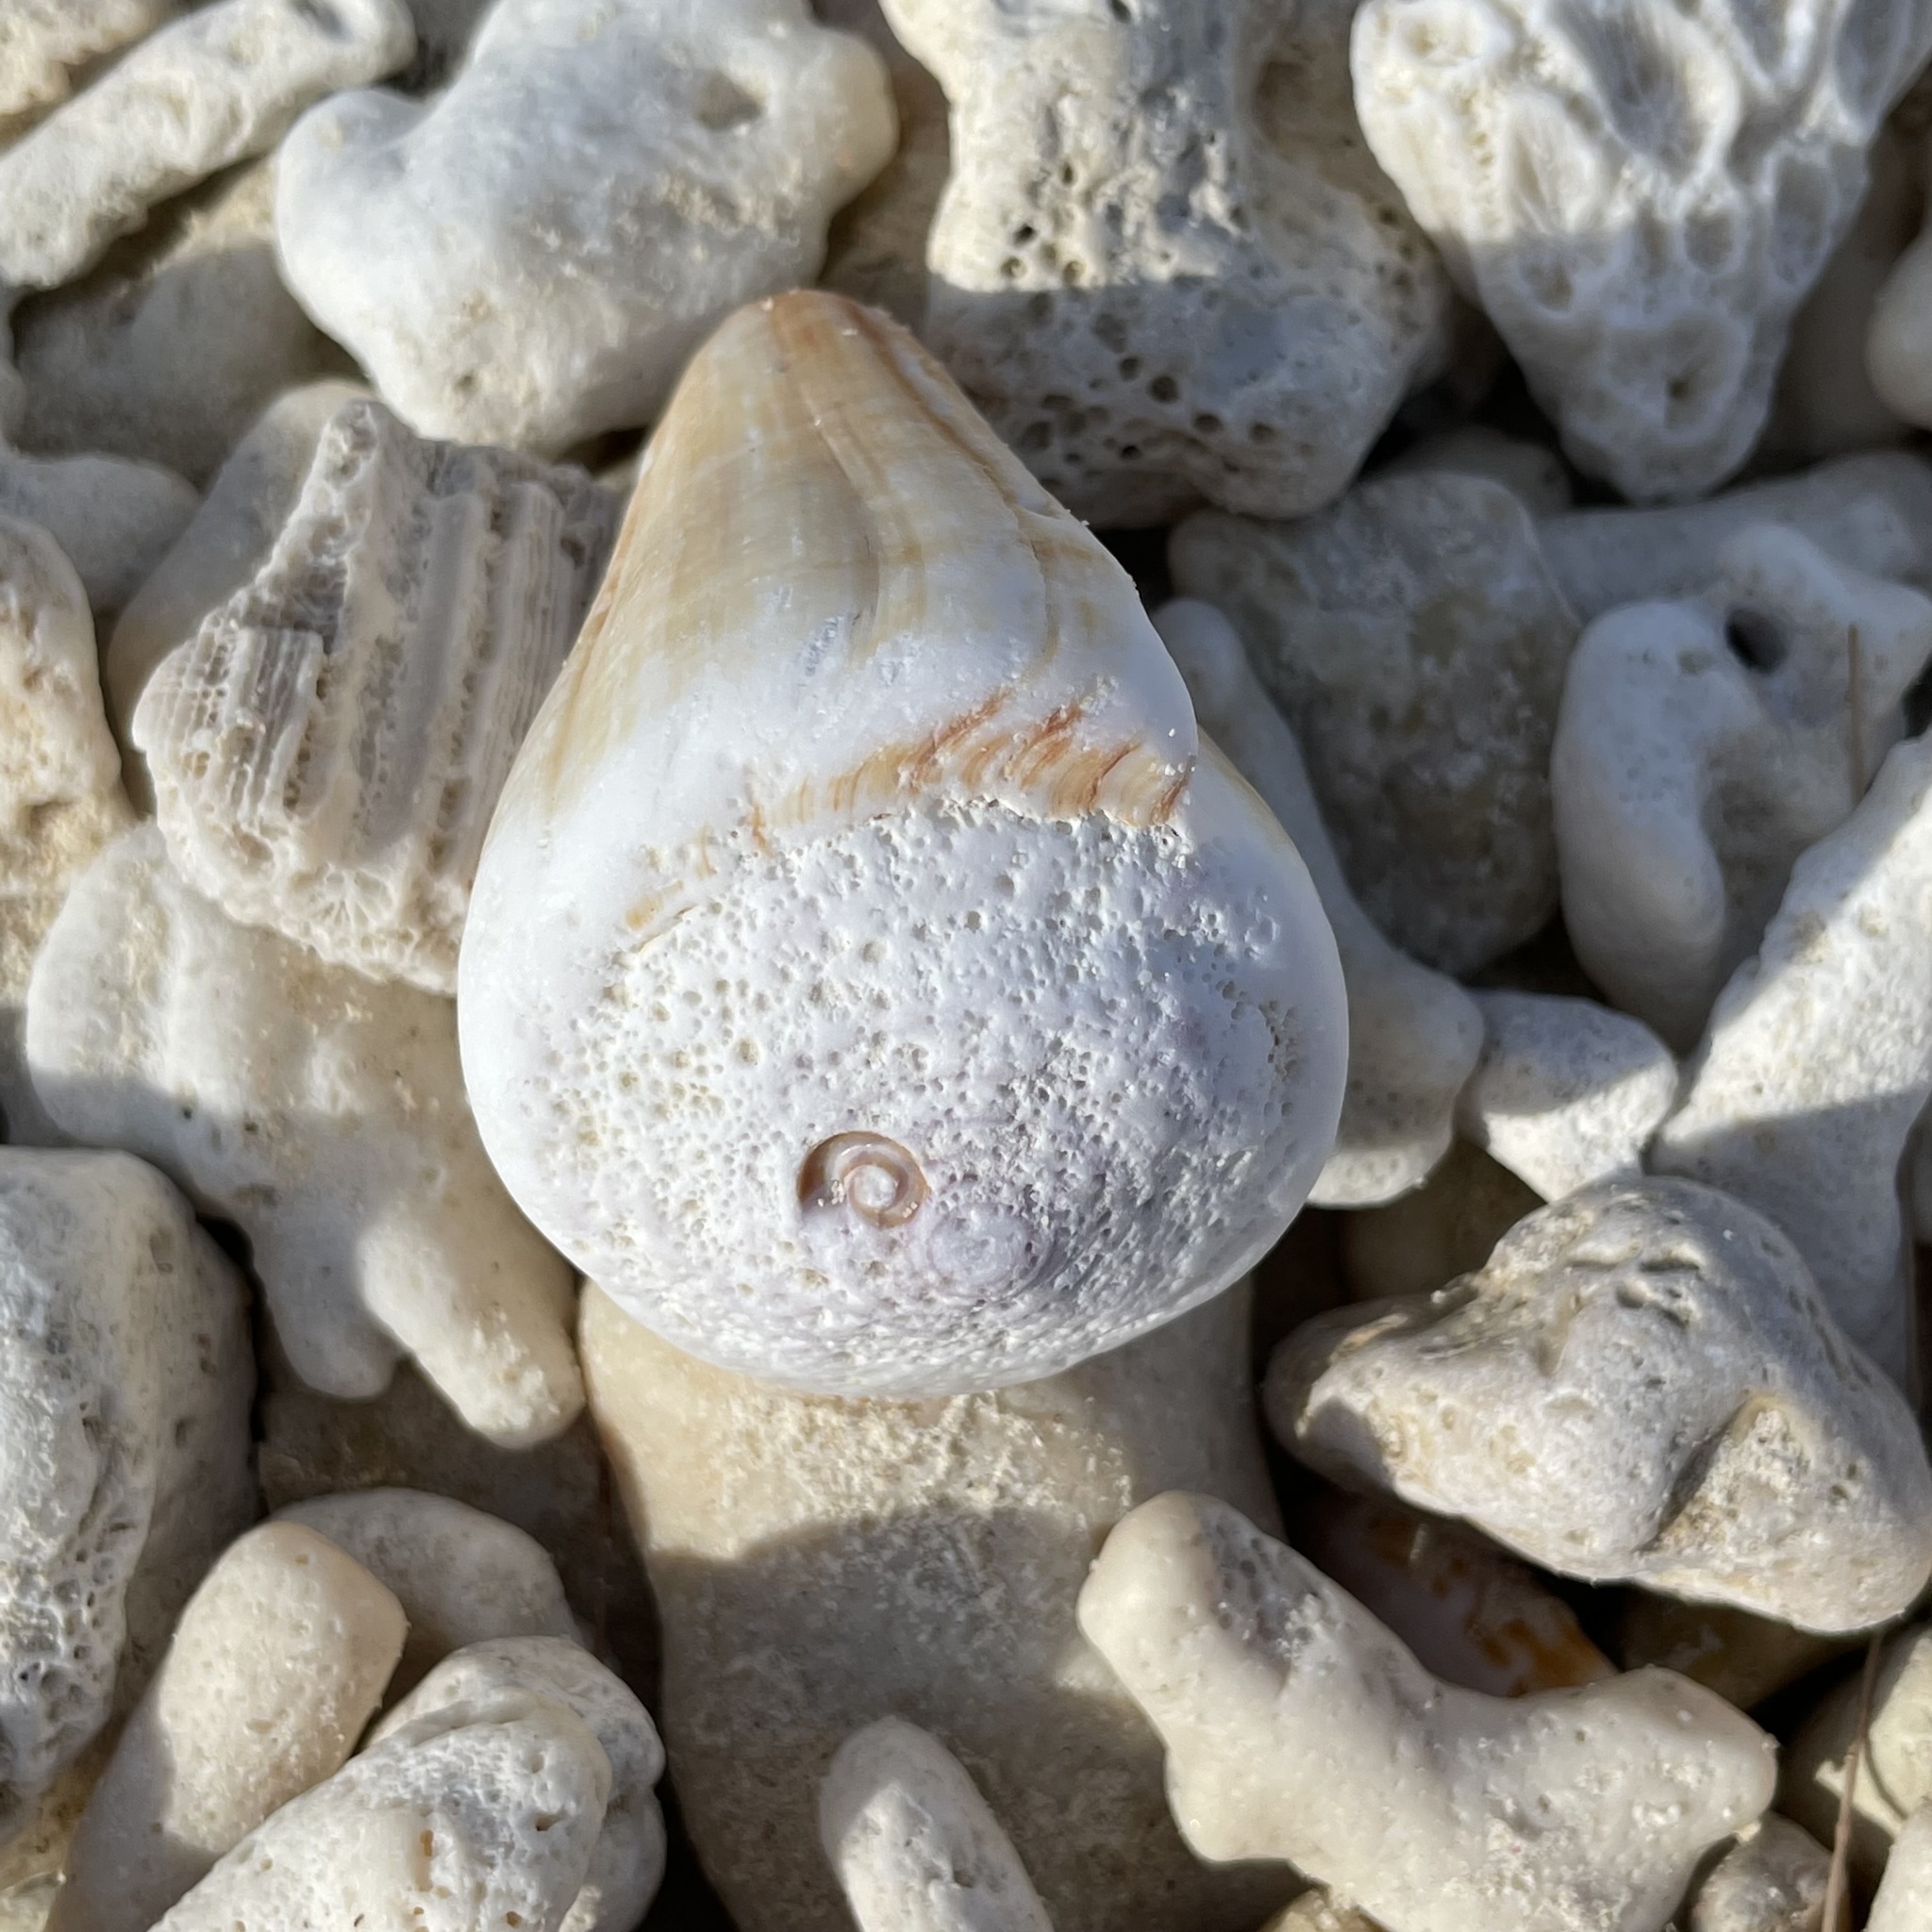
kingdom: Animalia
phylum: Mollusca
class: Gastropoda
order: Neogastropoda
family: Conidae
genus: Conus
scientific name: Conus distans
